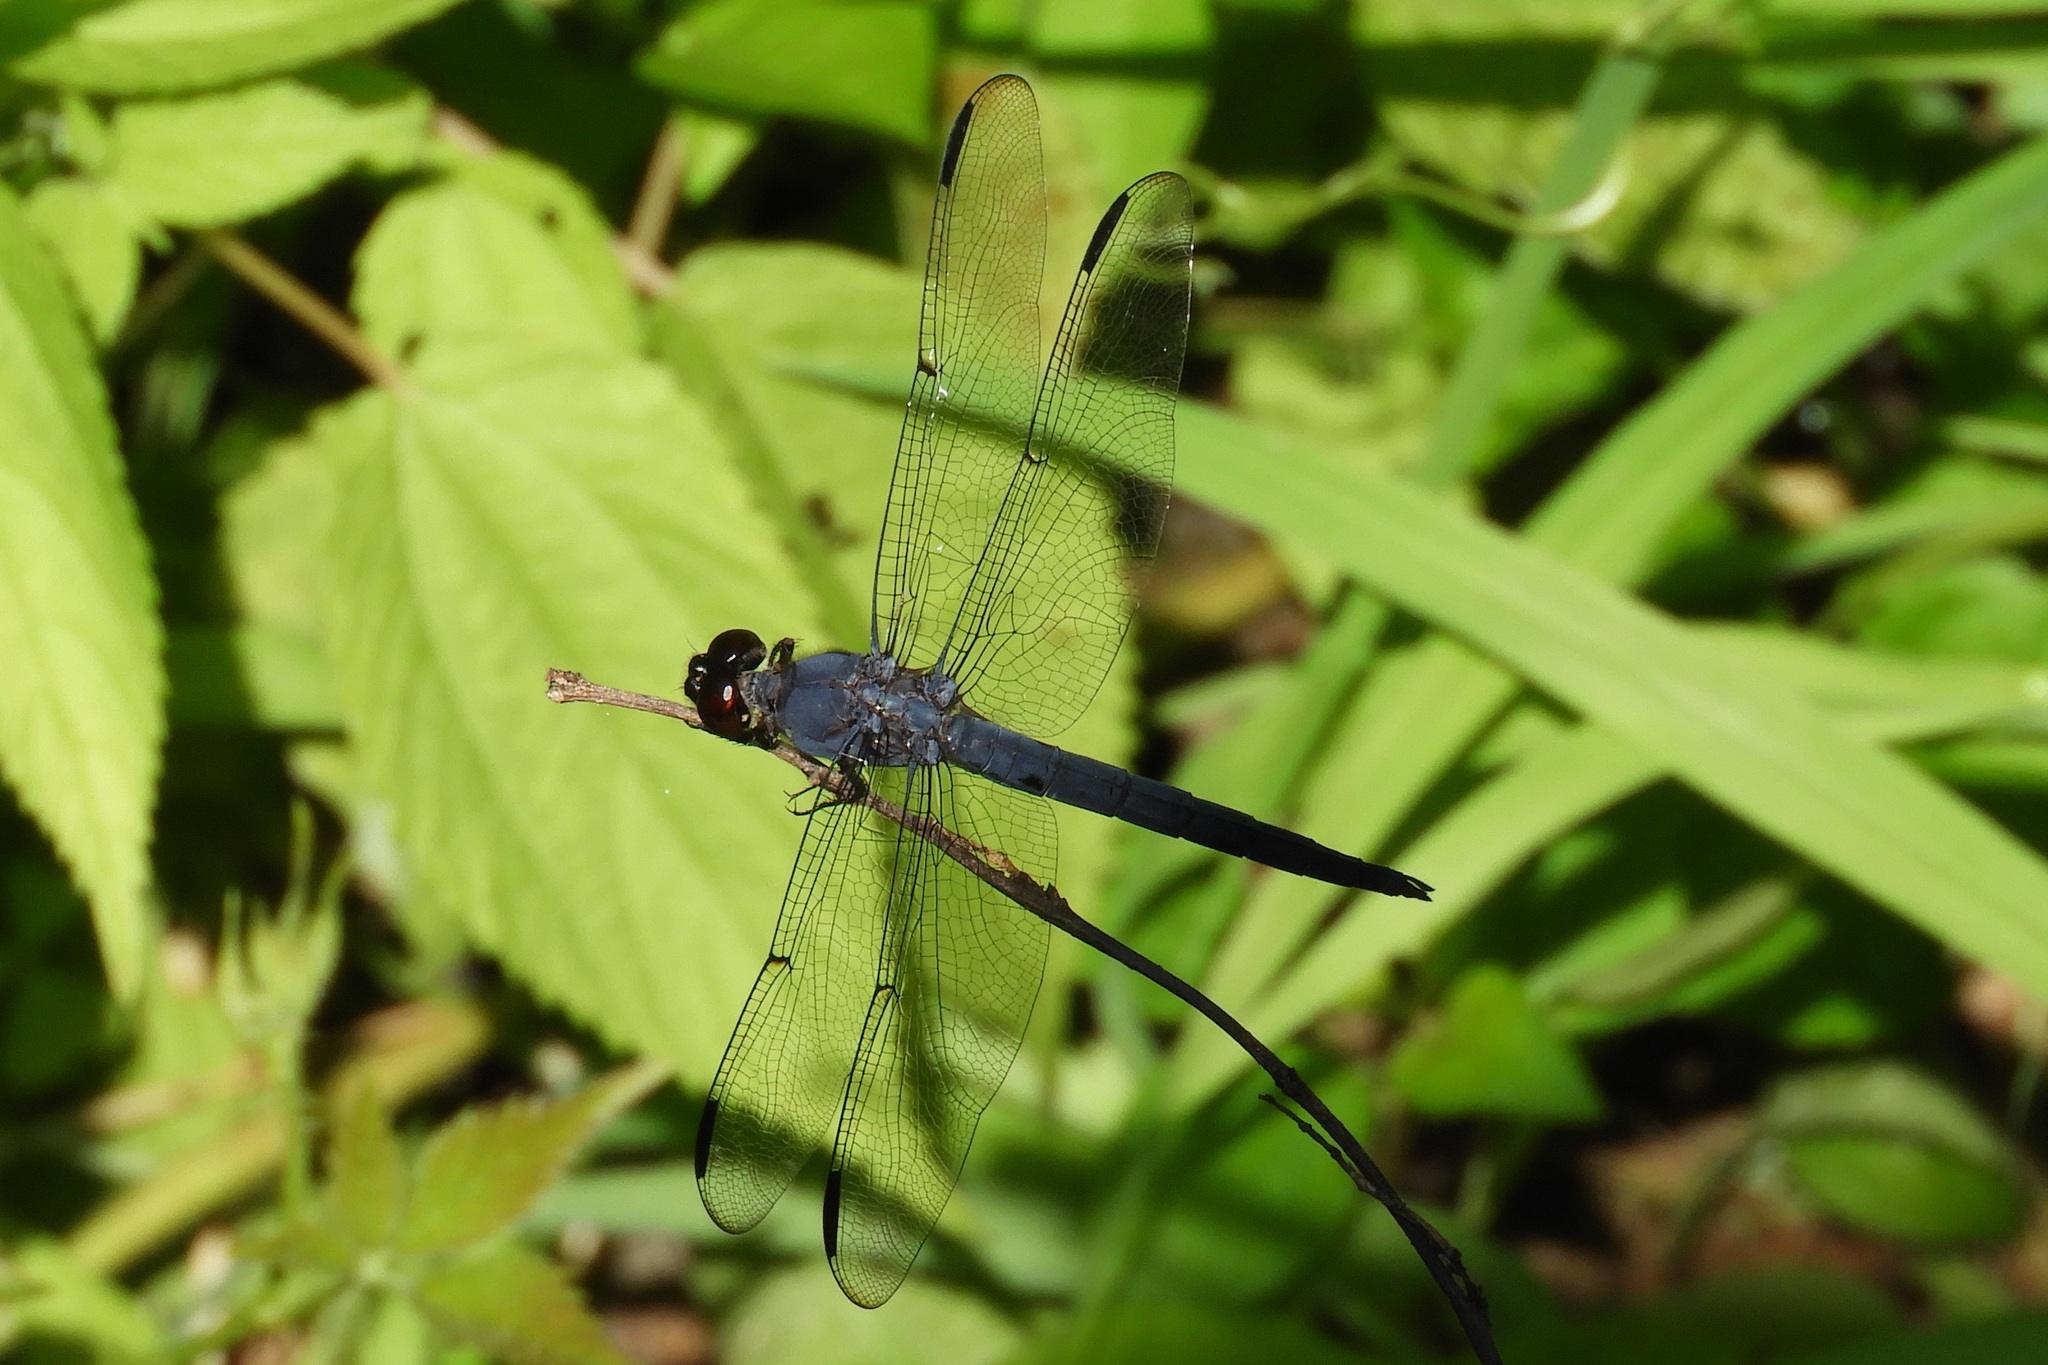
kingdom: Animalia
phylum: Arthropoda
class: Insecta
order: Odonata
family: Libellulidae
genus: Libellula
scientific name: Libellula incesta
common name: Slaty skimmer
